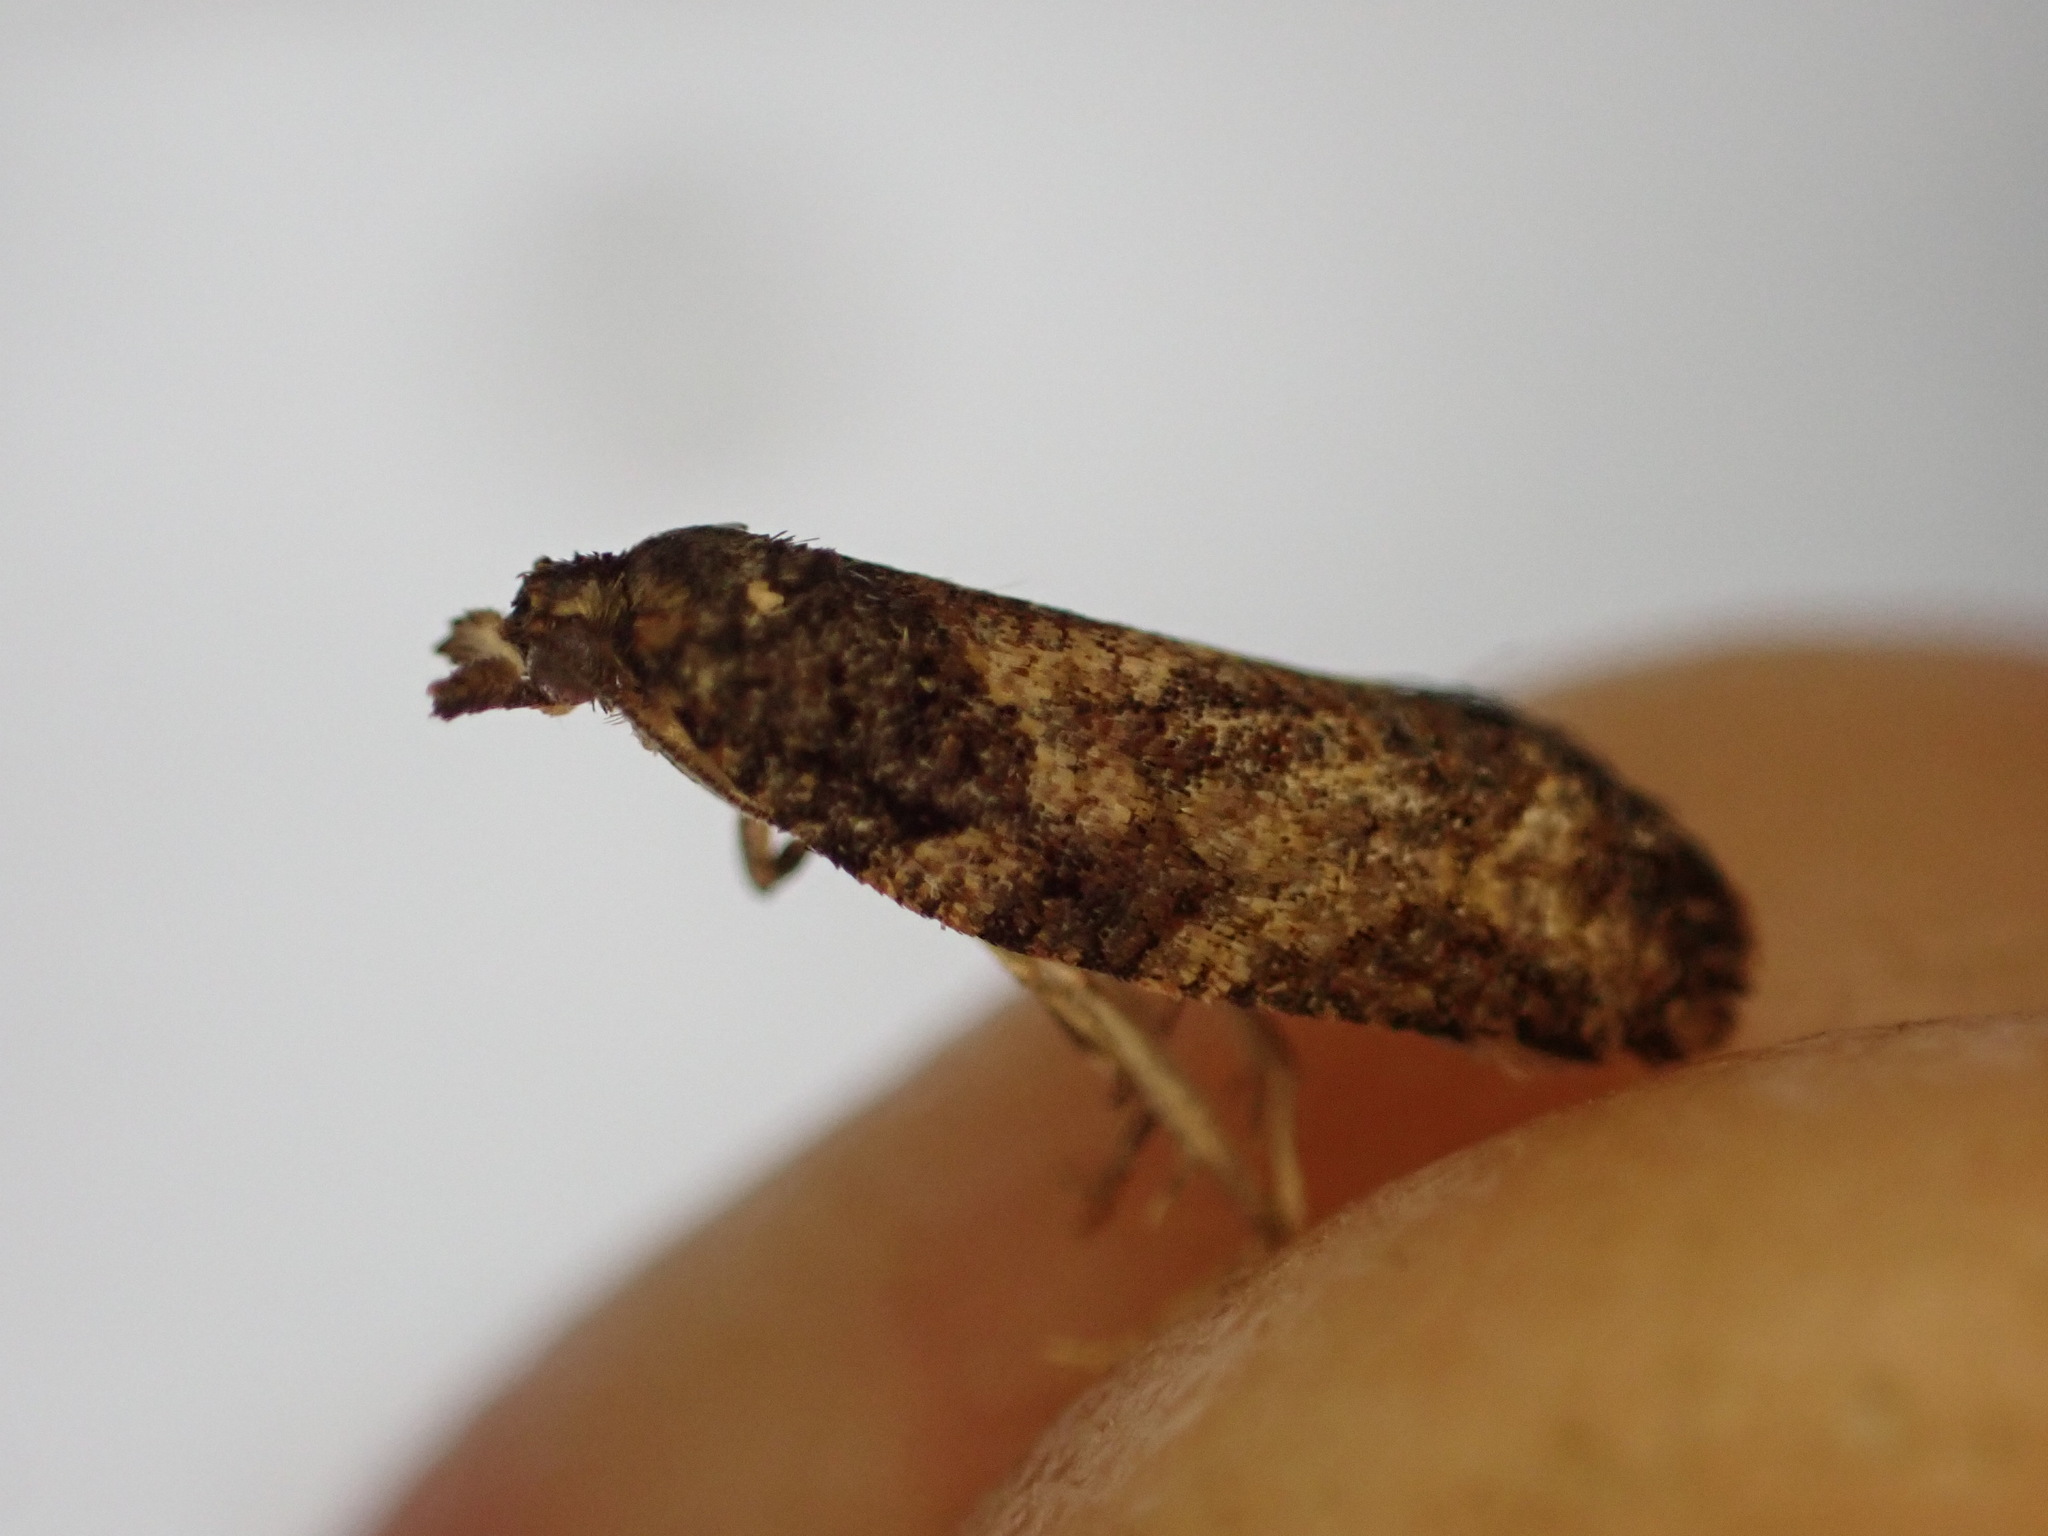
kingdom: Animalia
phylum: Arthropoda
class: Insecta
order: Lepidoptera
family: Tortricidae
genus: Capua
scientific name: Capua intractana
